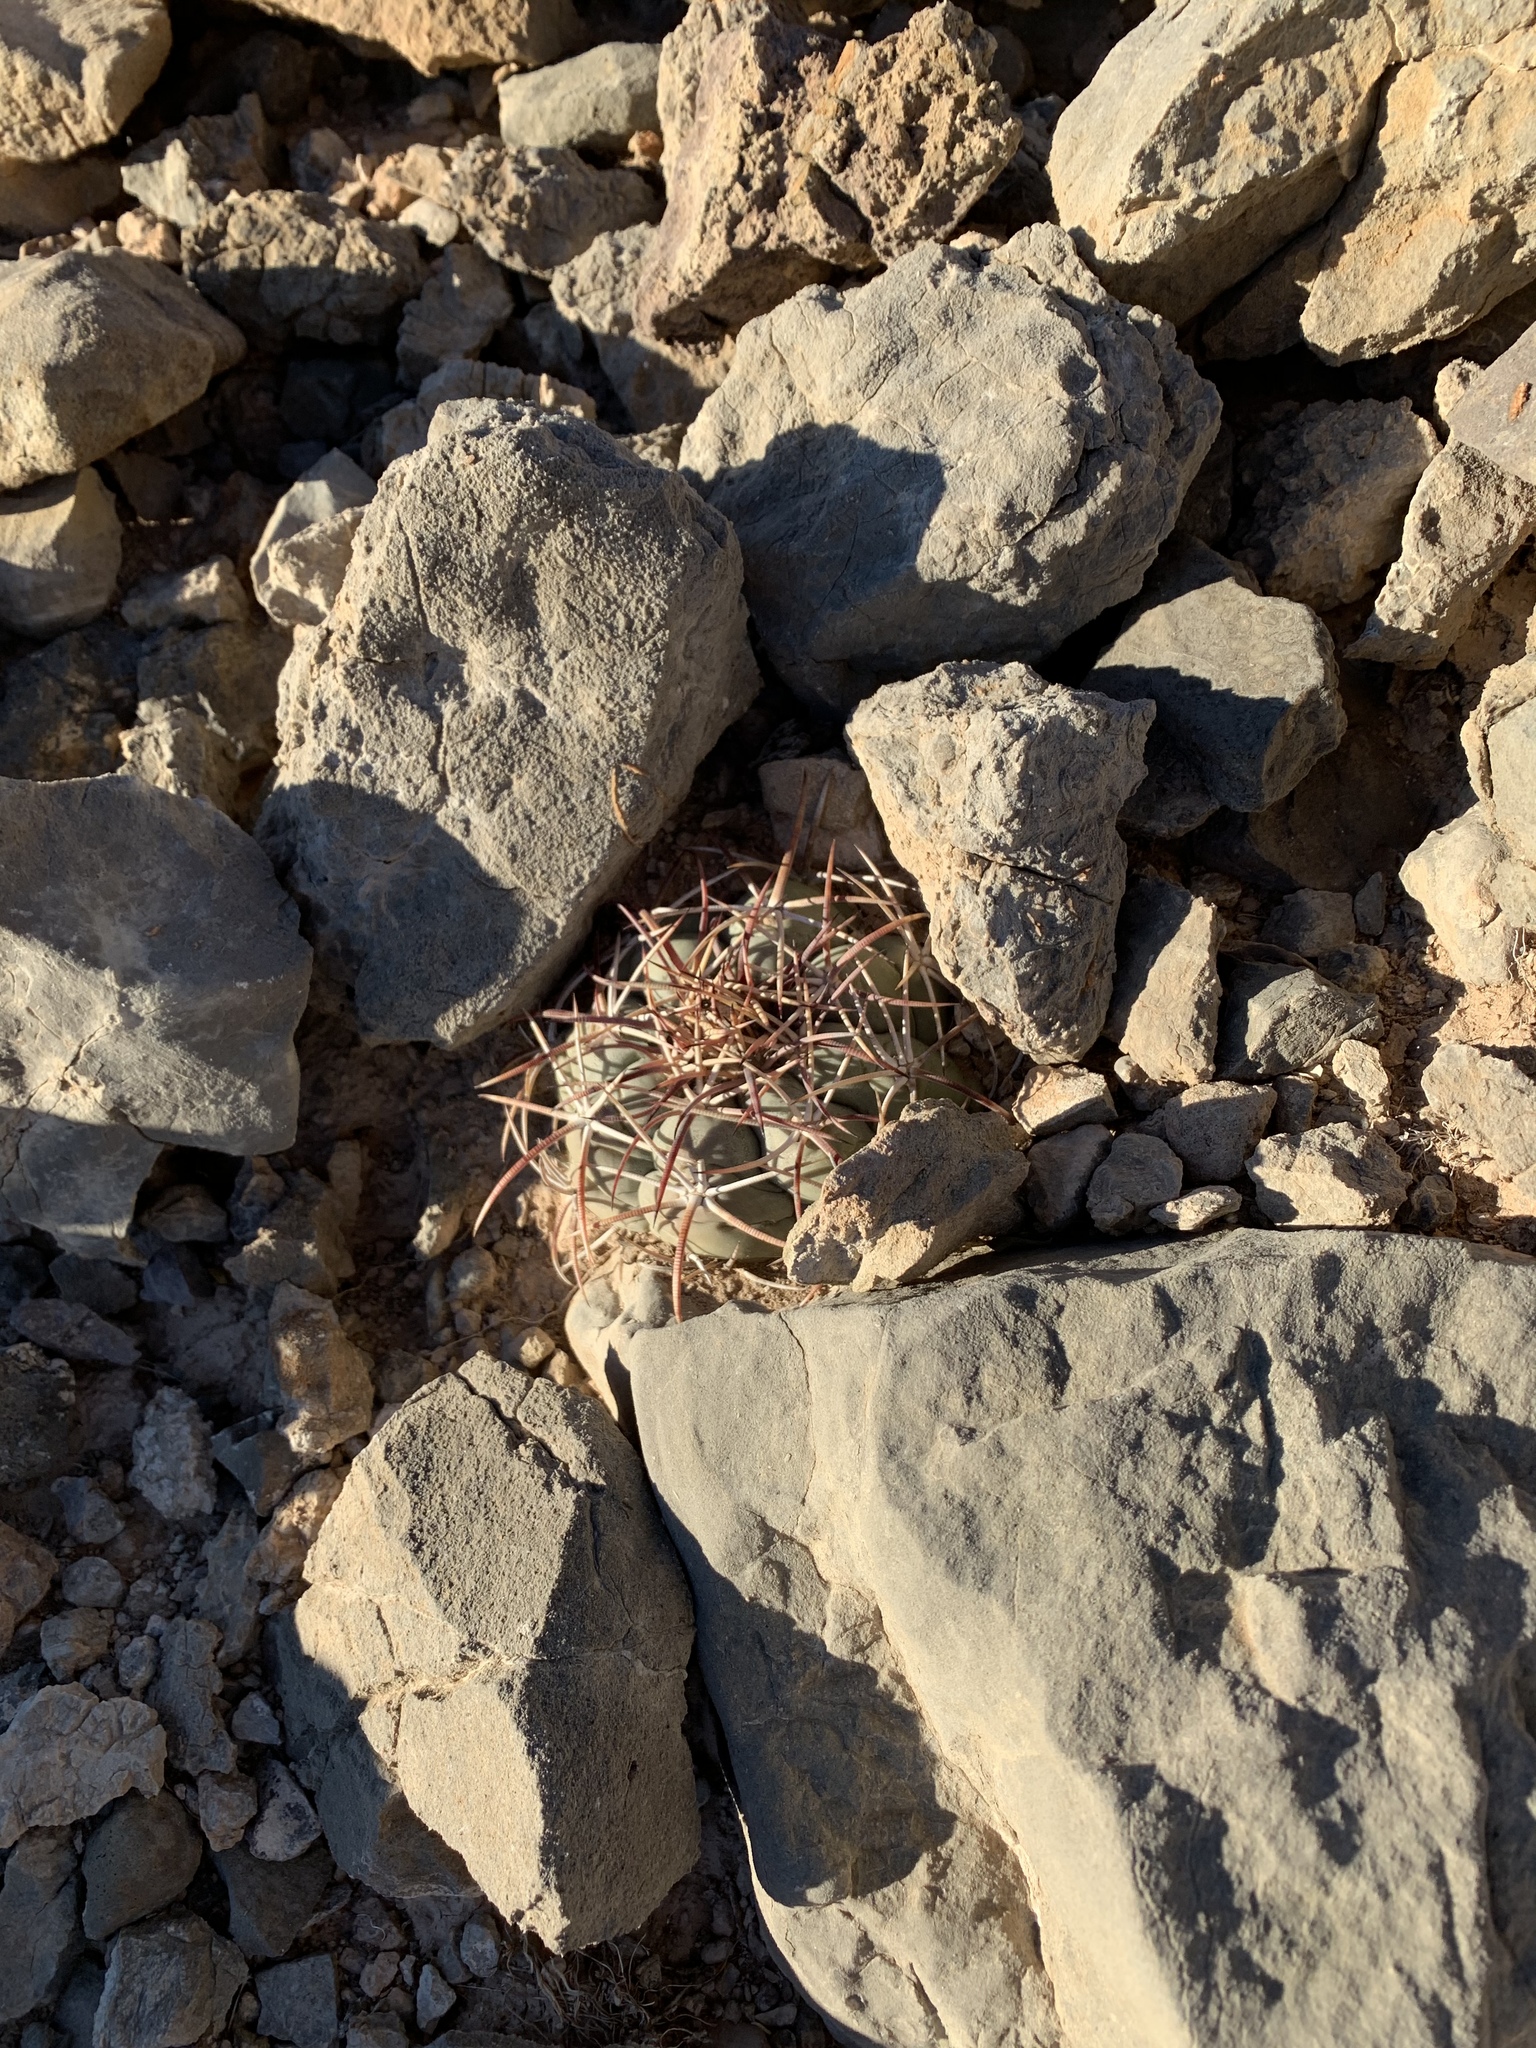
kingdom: Plantae
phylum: Tracheophyta
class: Magnoliopsida
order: Caryophyllales
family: Cactaceae
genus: Echinocactus
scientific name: Echinocactus horizonthalonius
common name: Devilshead
